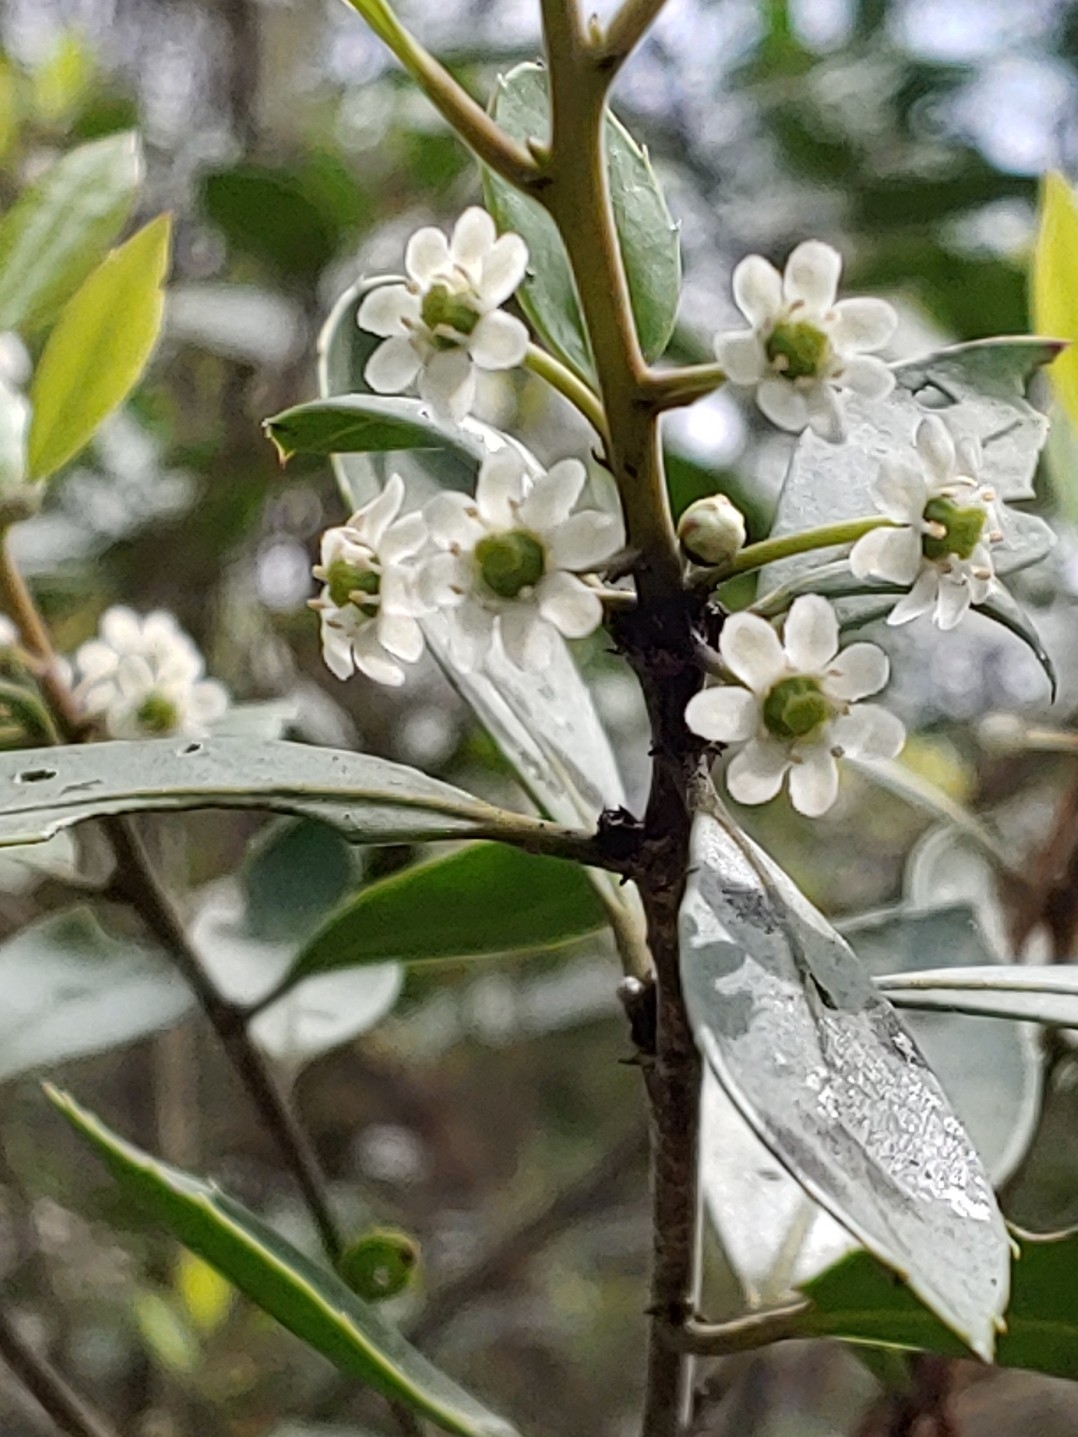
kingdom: Plantae
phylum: Tracheophyta
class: Magnoliopsida
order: Aquifoliales
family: Aquifoliaceae
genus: Ilex
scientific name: Ilex coriacea
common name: Sweet gallberry
